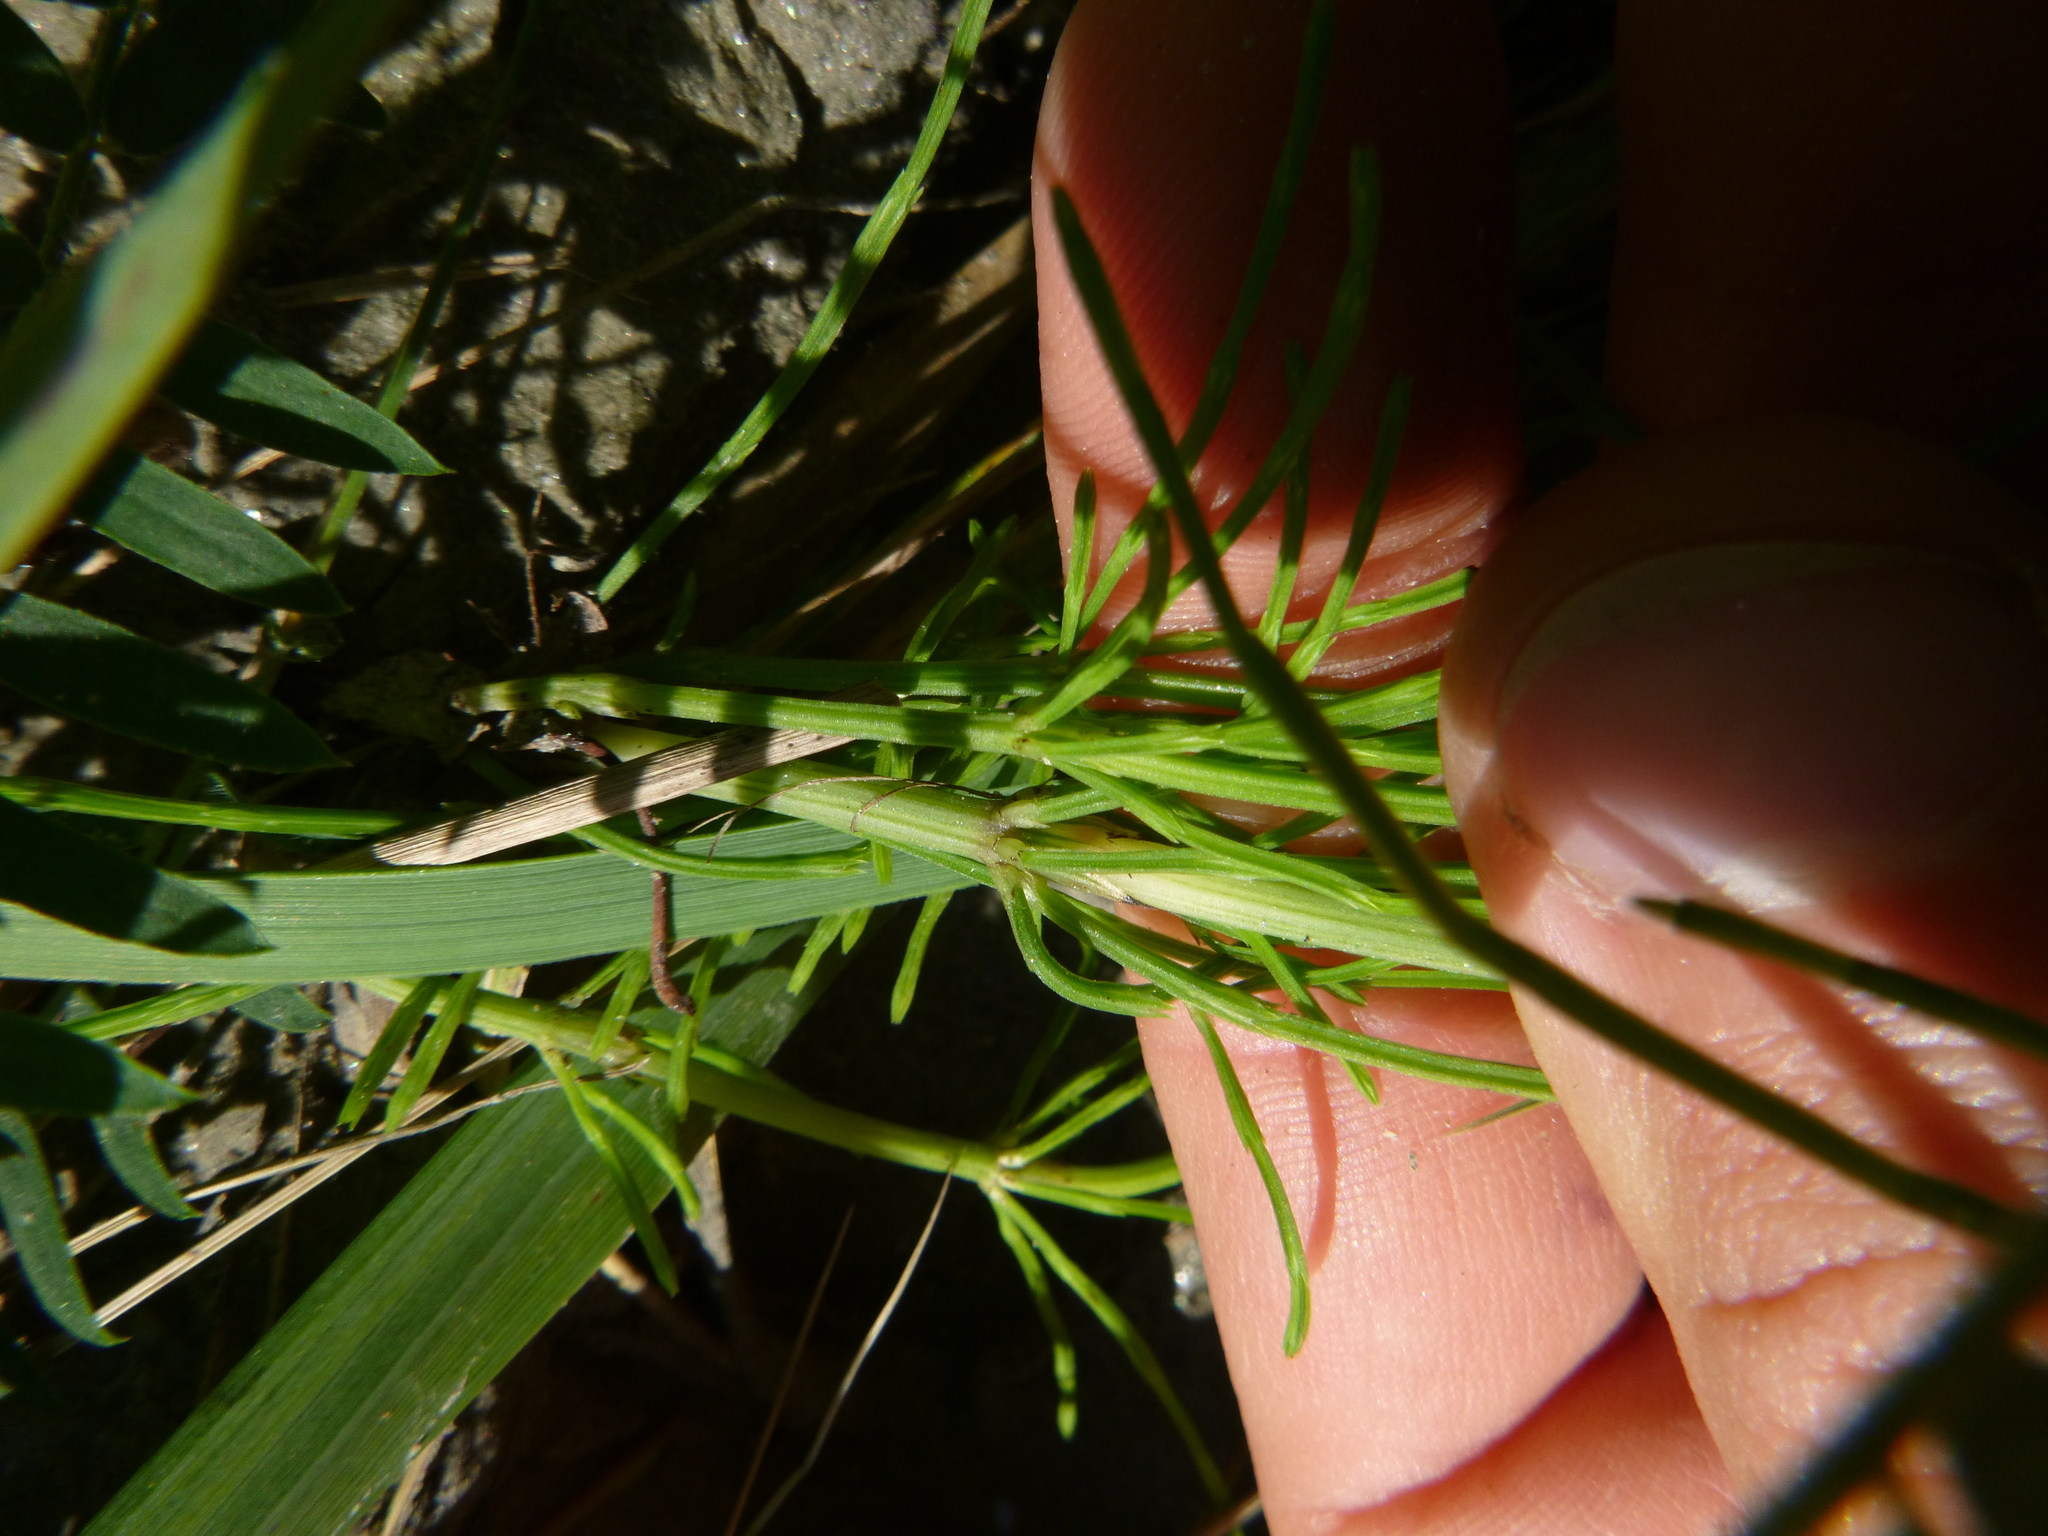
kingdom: Plantae
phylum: Tracheophyta
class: Polypodiopsida
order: Equisetales
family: Equisetaceae
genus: Equisetum
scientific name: Equisetum arvense
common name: Field horsetail
